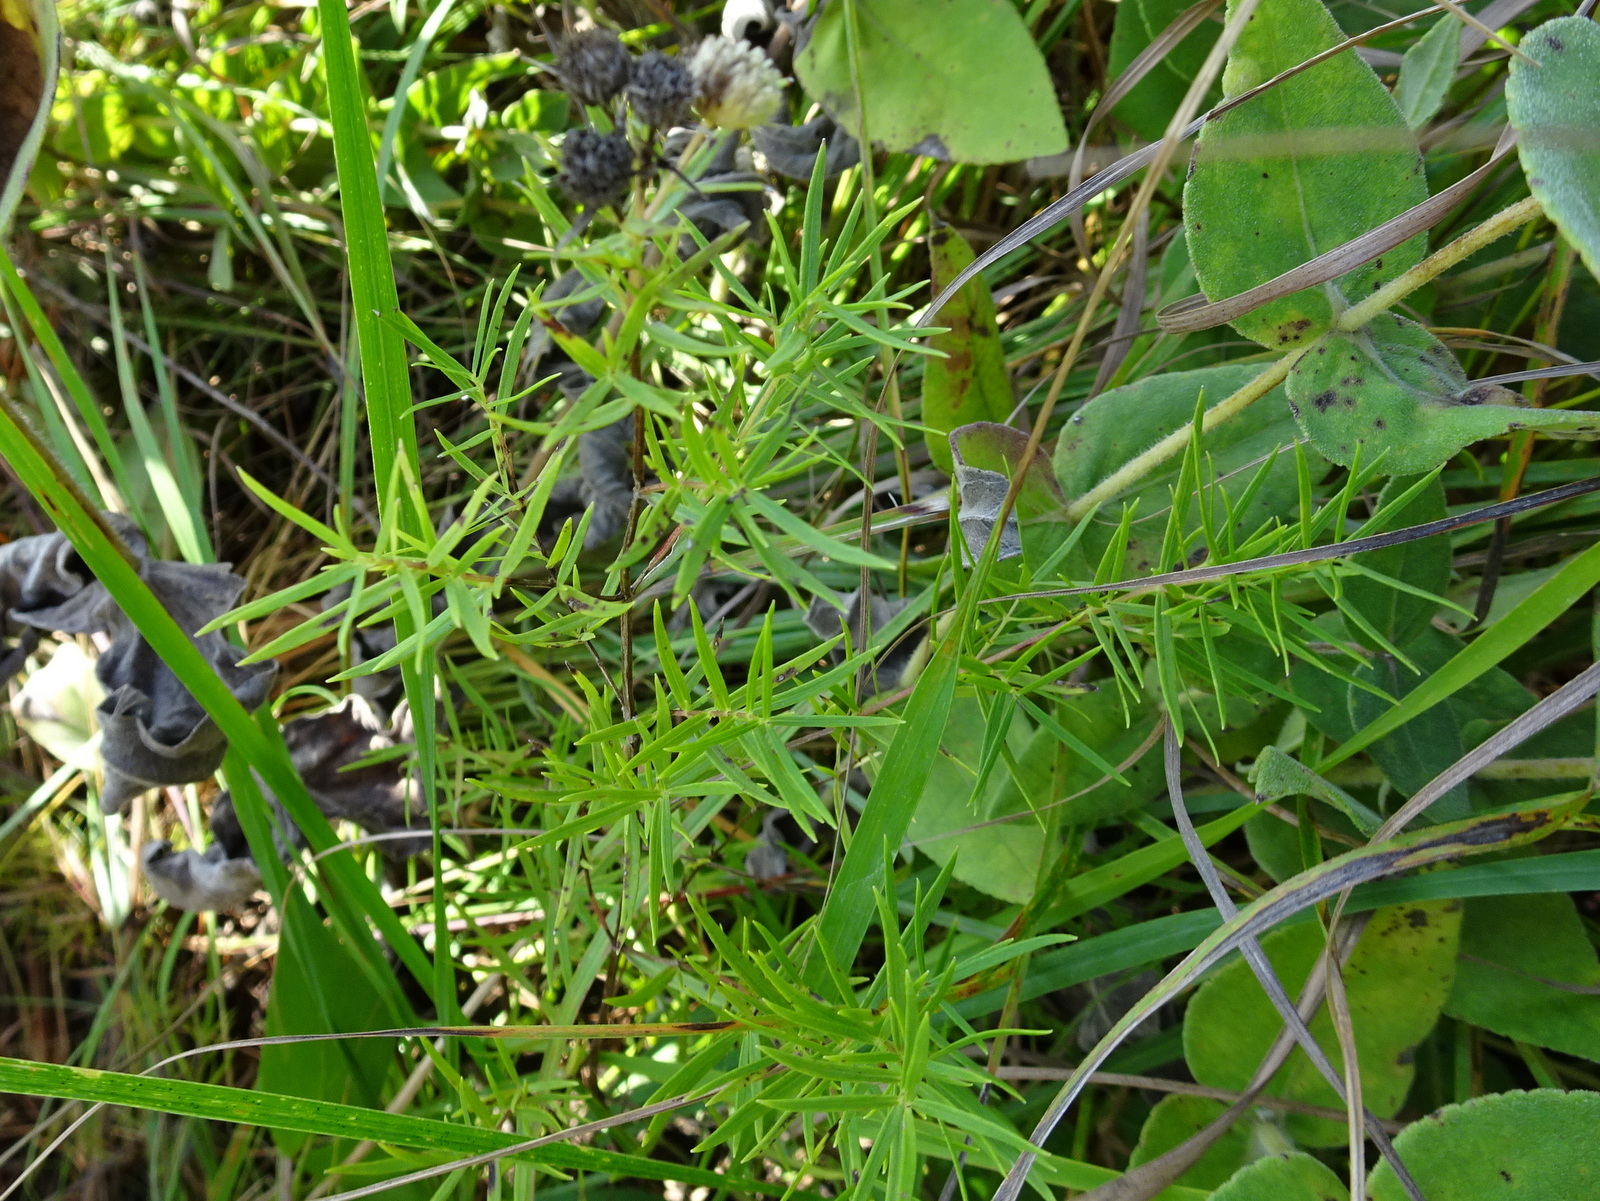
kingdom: Plantae
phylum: Tracheophyta
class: Magnoliopsida
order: Lamiales
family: Lamiaceae
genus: Pycnanthemum
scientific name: Pycnanthemum tenuifolium
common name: Narrow-leaf mountain-mint
